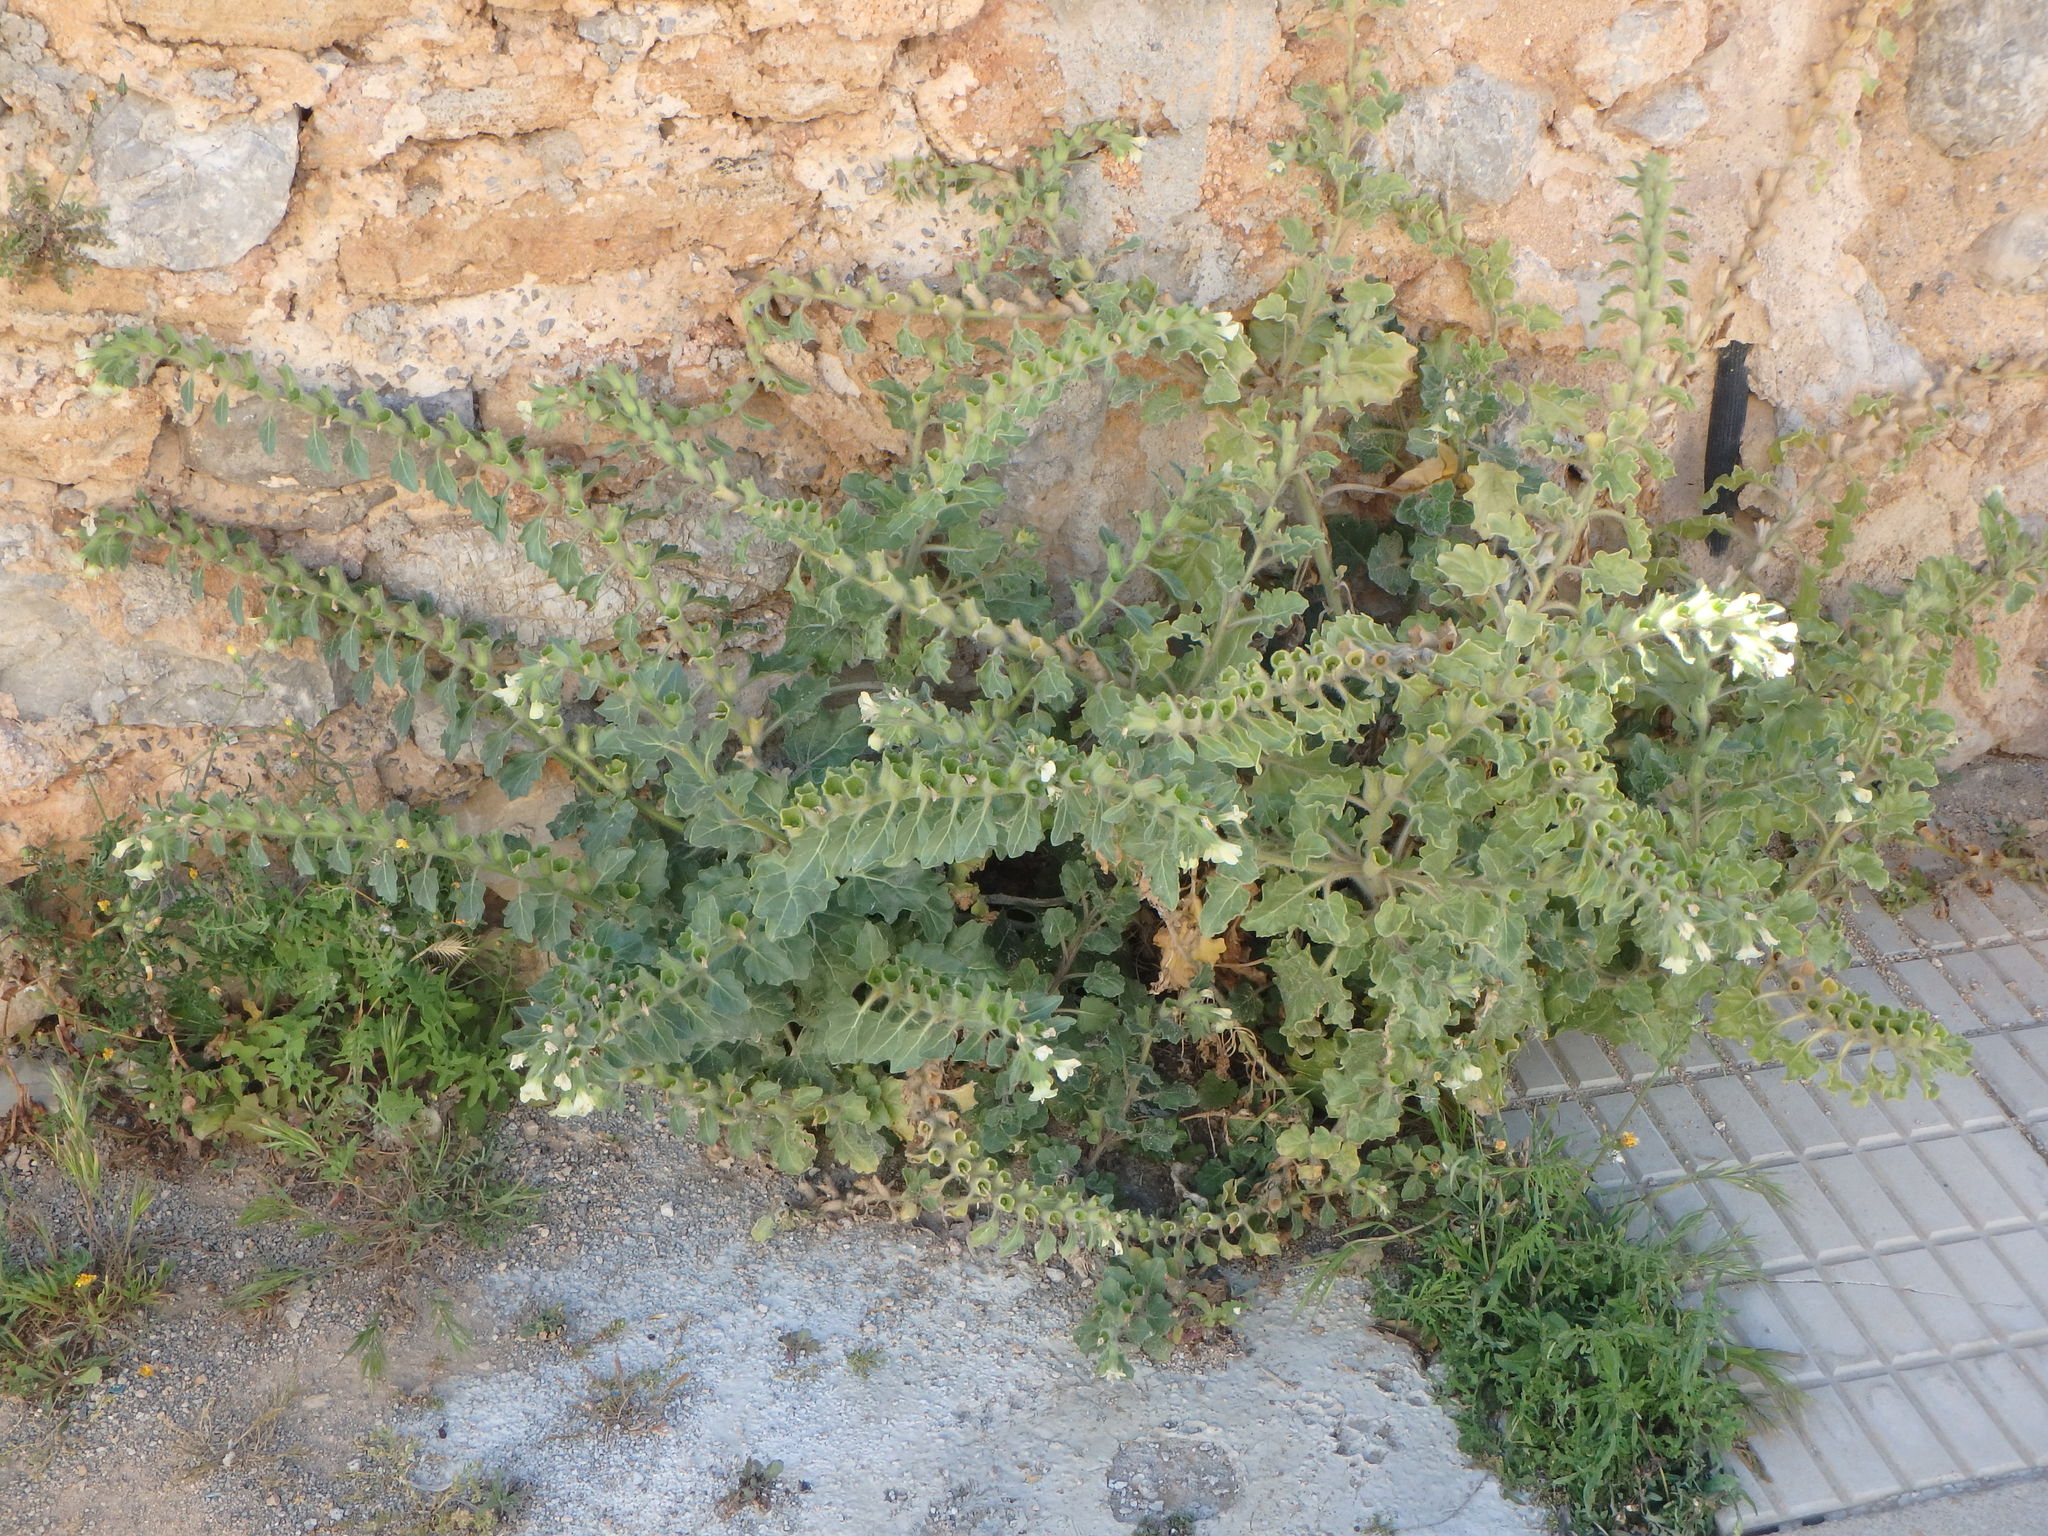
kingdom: Plantae
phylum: Tracheophyta
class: Magnoliopsida
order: Solanales
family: Solanaceae
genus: Hyoscyamus
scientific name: Hyoscyamus albus
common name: White henbane
